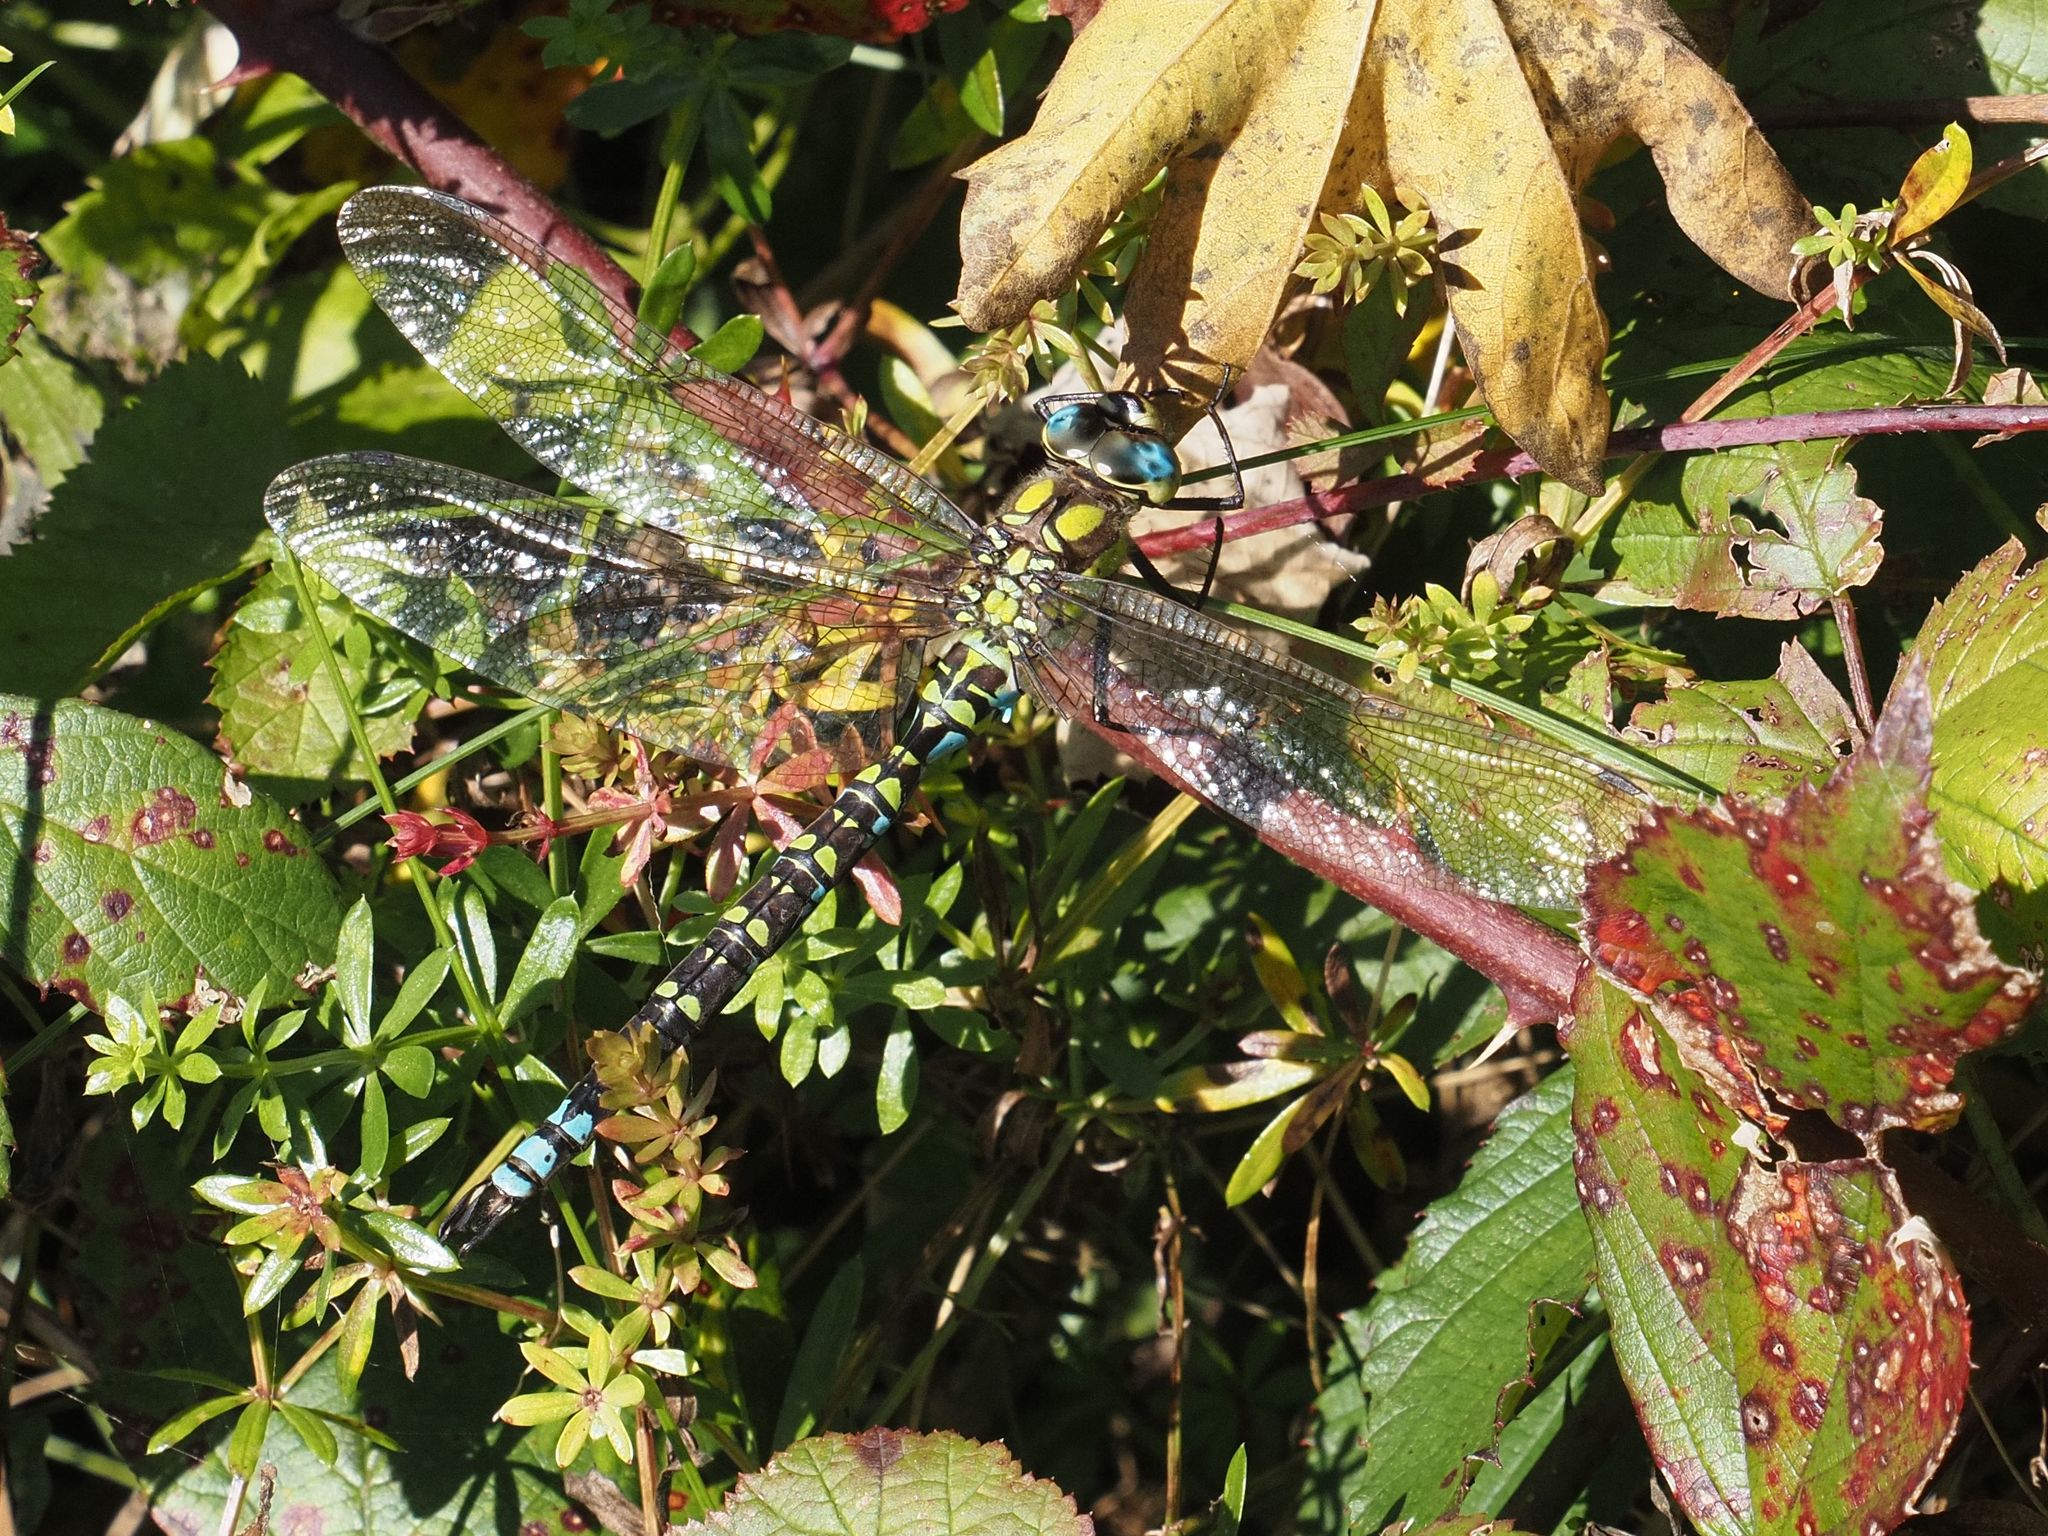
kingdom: Animalia
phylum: Arthropoda
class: Insecta
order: Odonata
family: Aeshnidae
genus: Aeshna
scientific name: Aeshna cyanea
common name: Southern hawker
